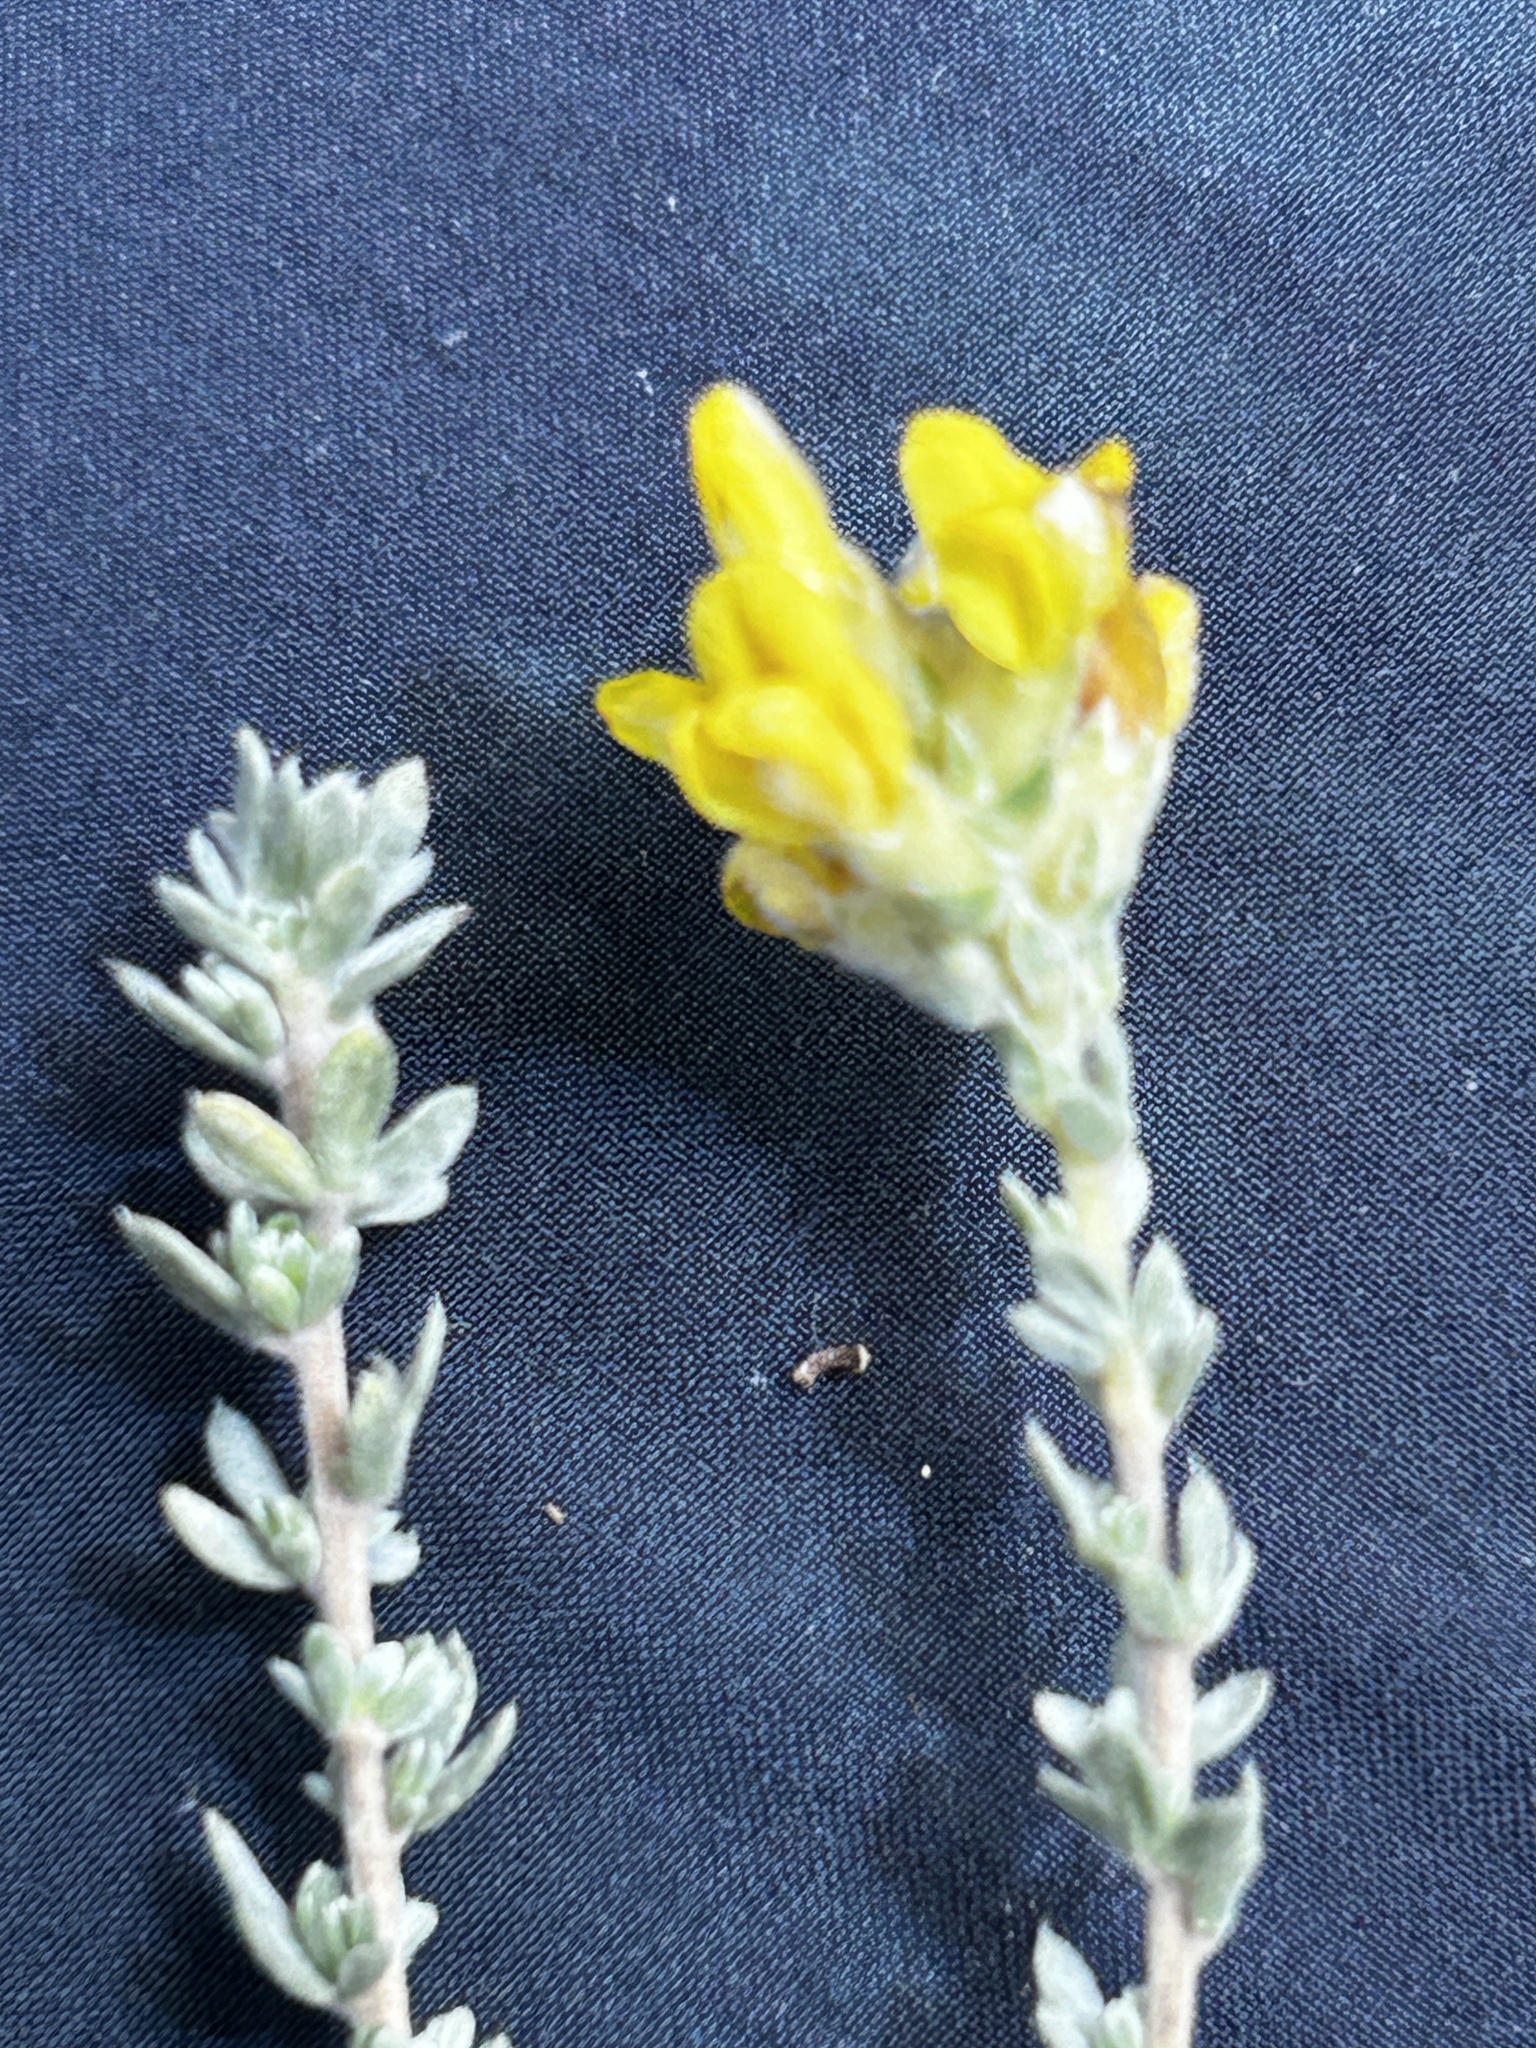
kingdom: Plantae
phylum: Tracheophyta
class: Magnoliopsida
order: Fabales
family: Fabaceae
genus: Aspalathus
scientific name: Aspalathus quinquefolia
